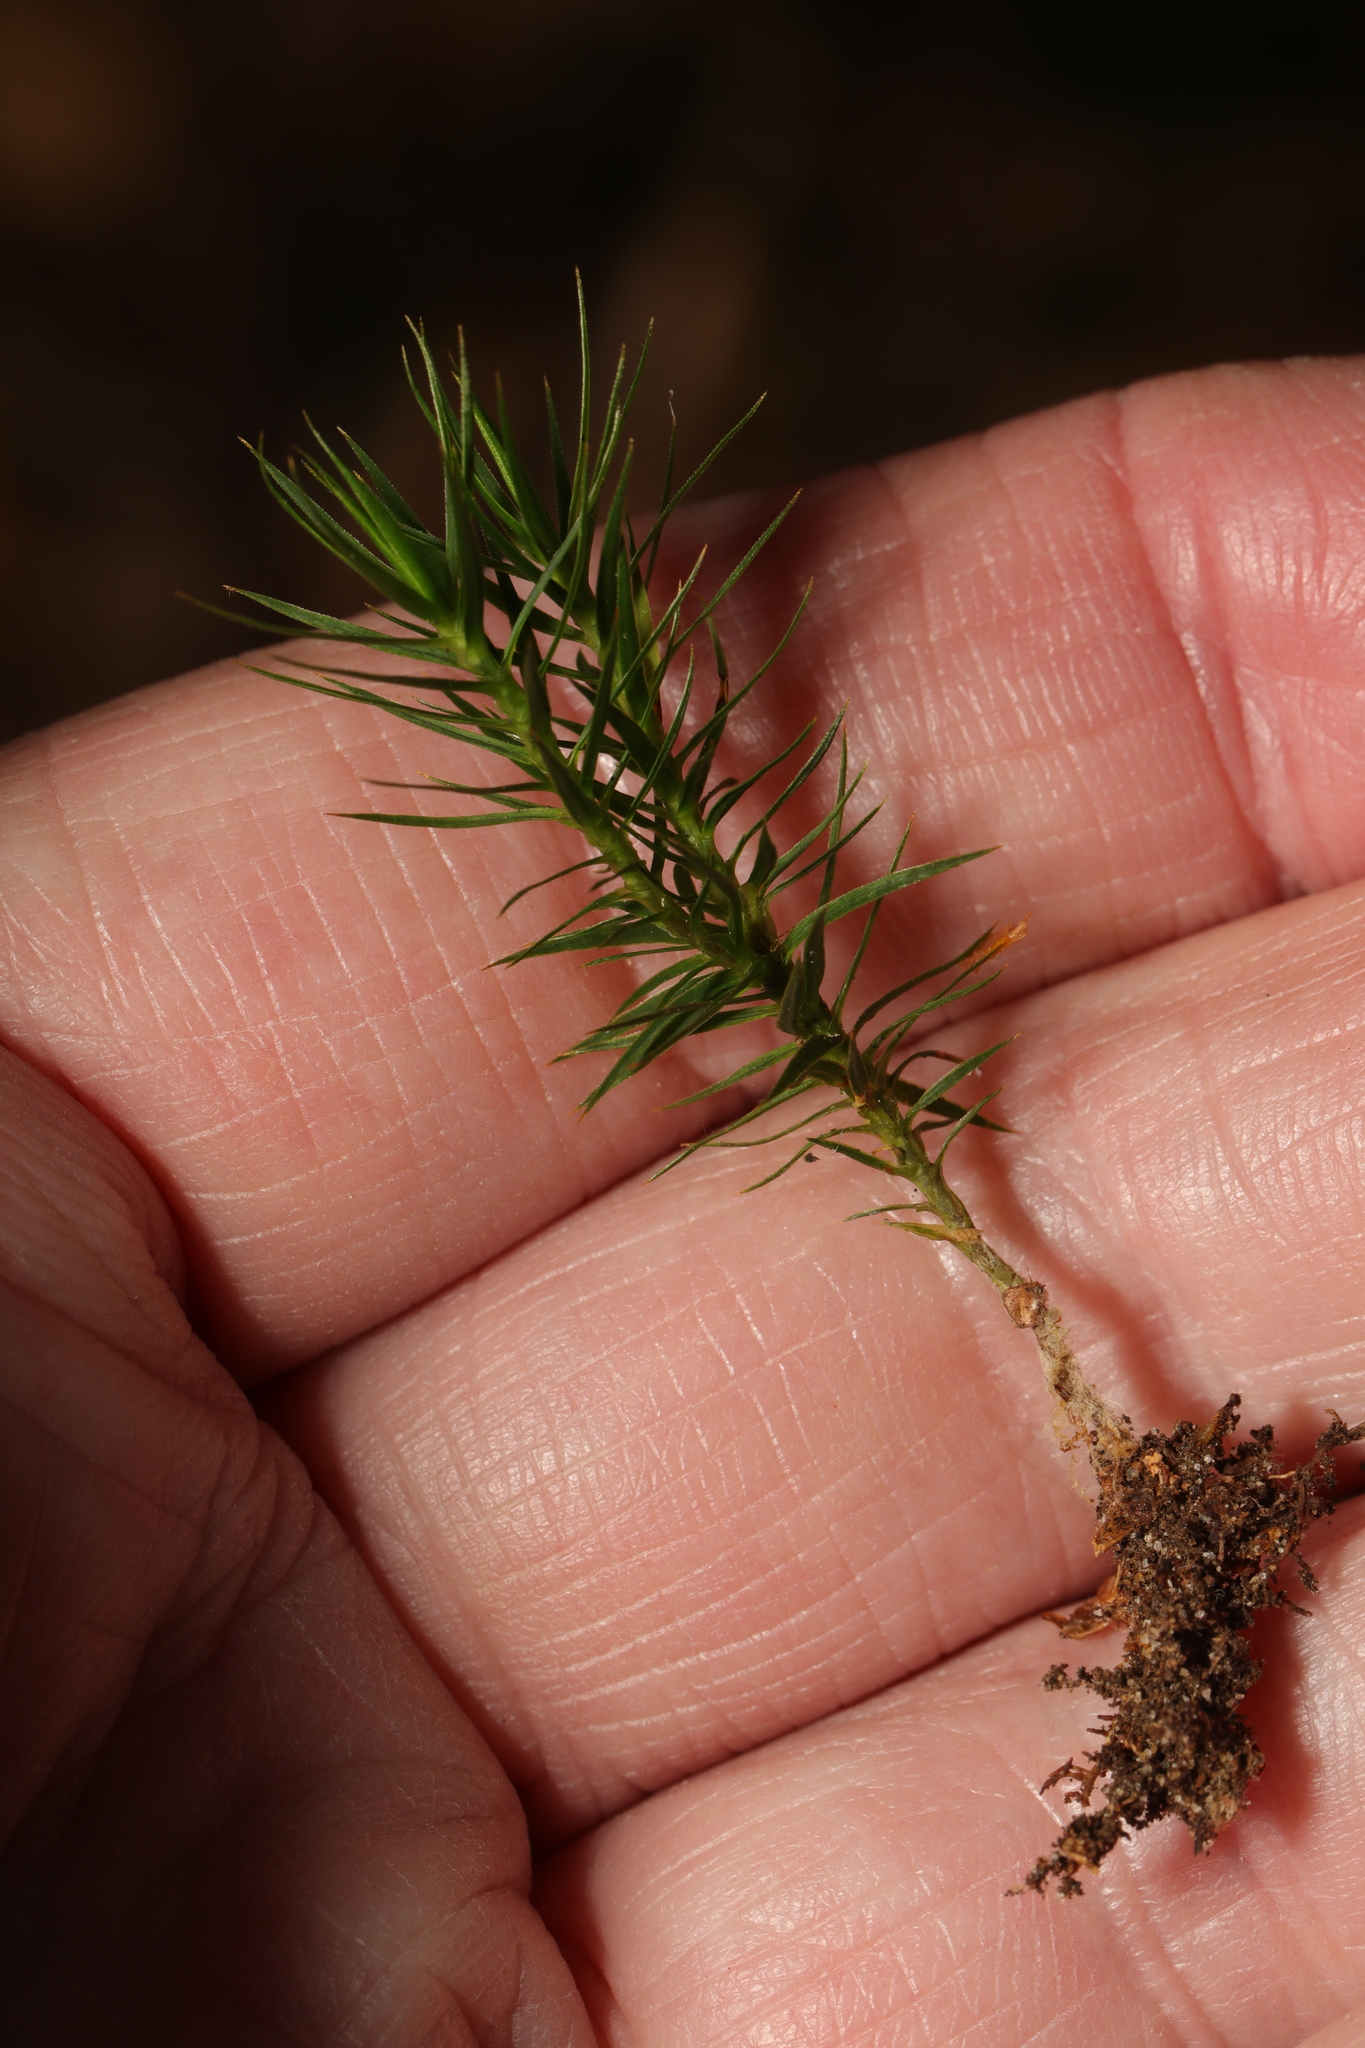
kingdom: Plantae
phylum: Bryophyta
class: Polytrichopsida
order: Polytrichales
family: Polytrichaceae
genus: Polytrichum
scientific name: Polytrichum formosum
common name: Bank haircap moss
